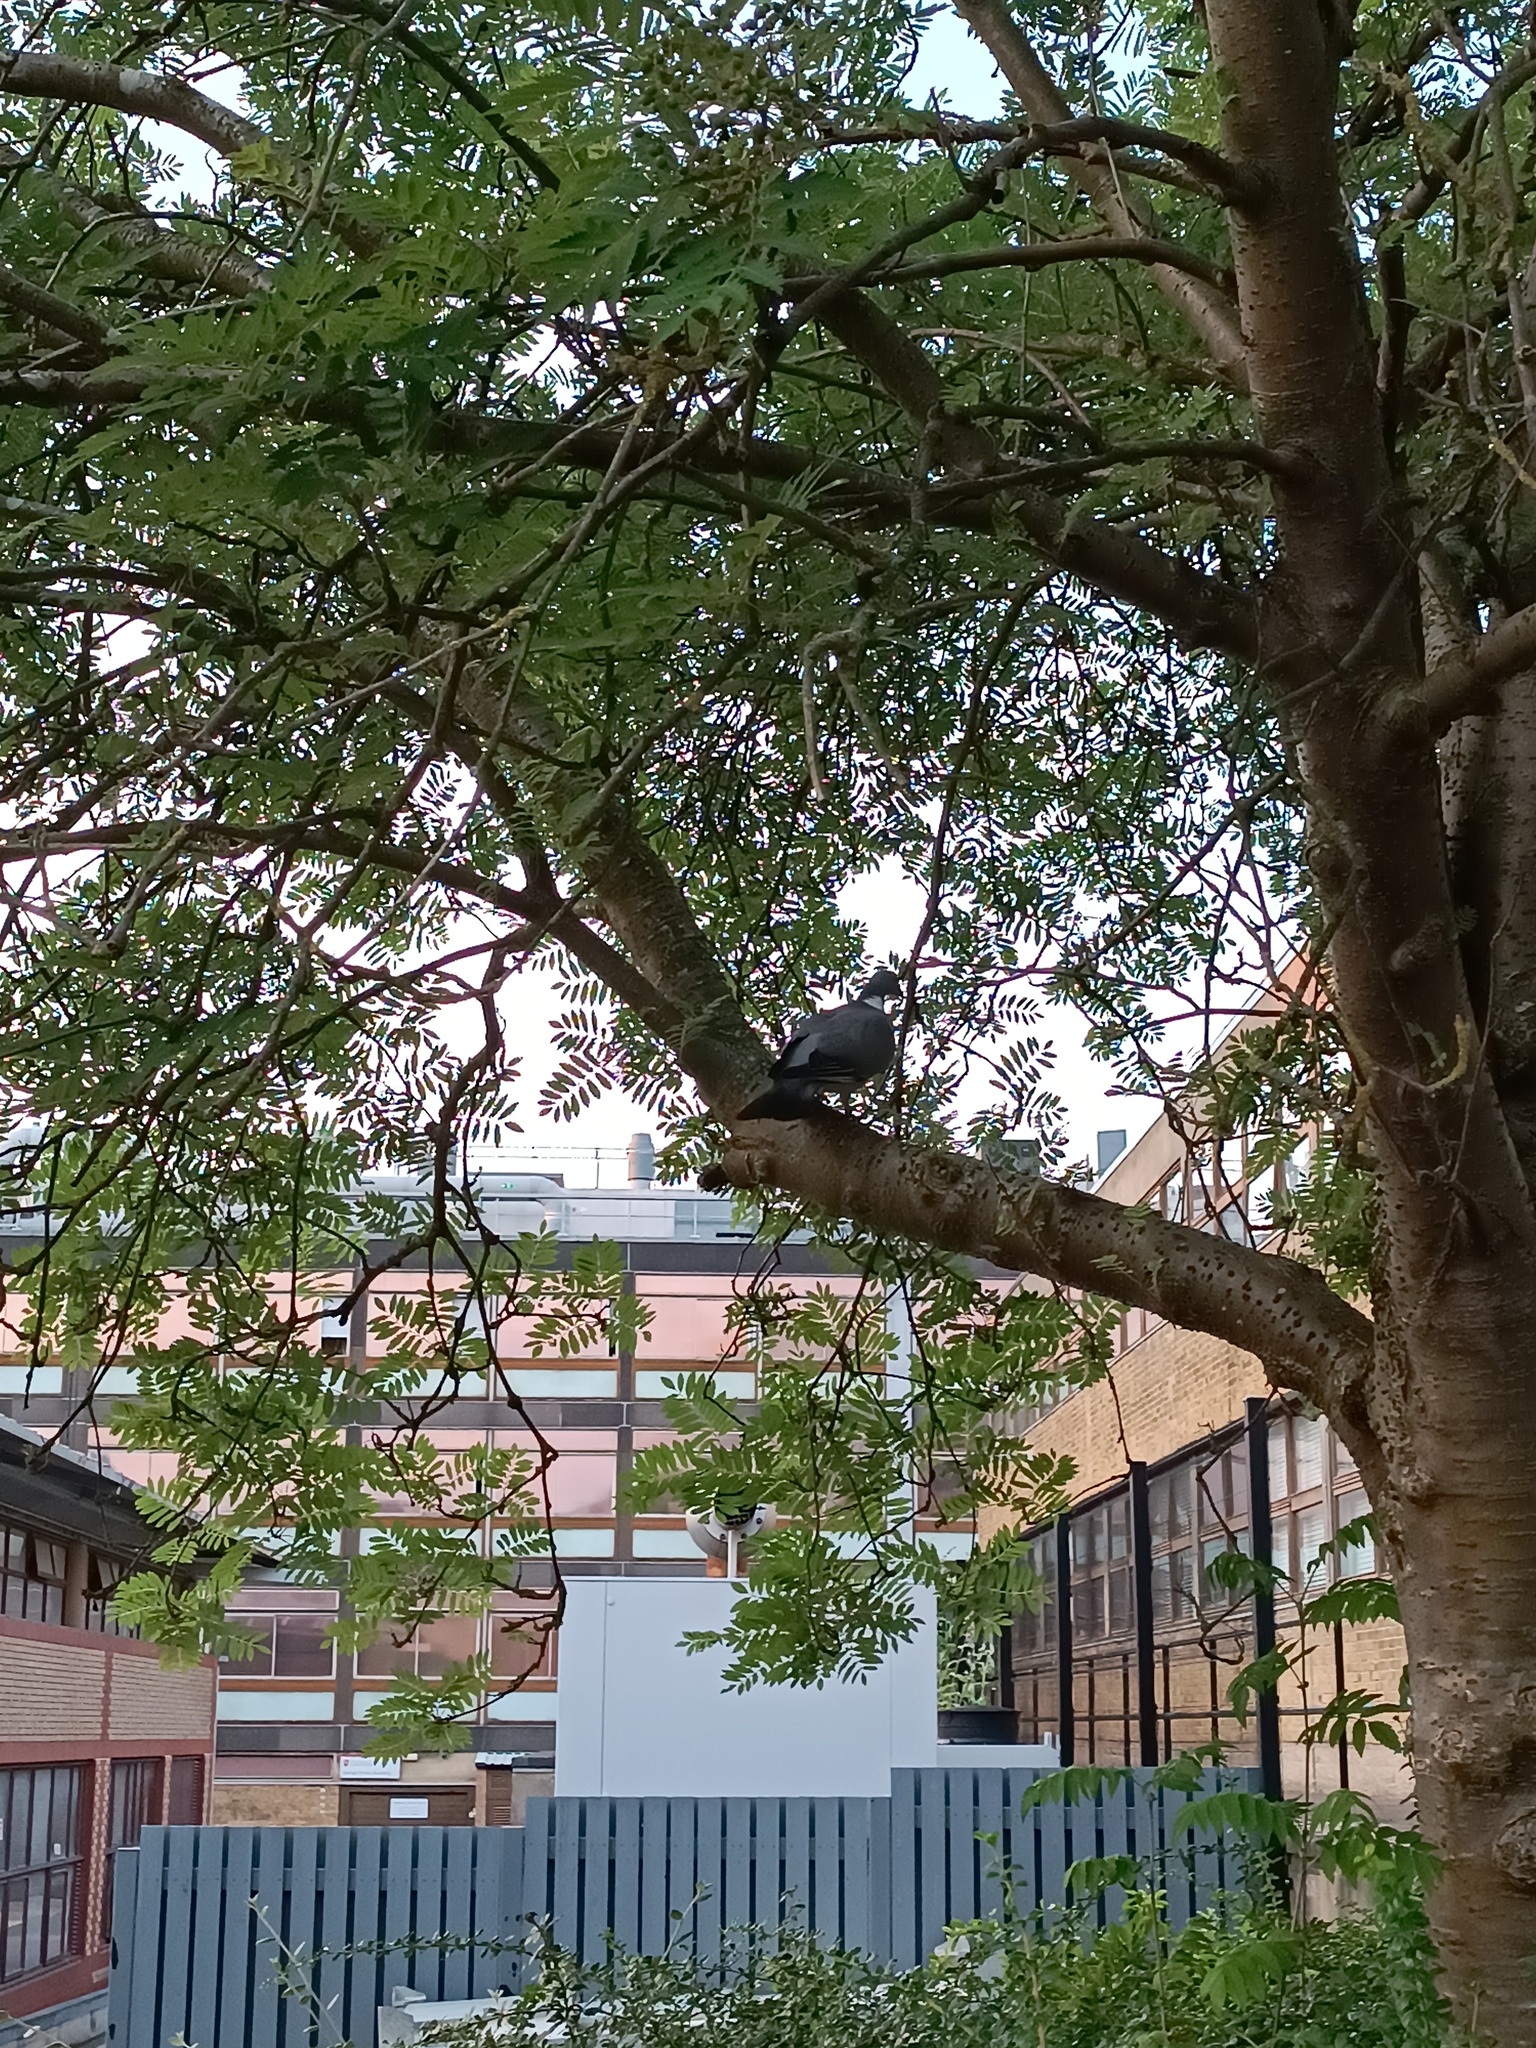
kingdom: Animalia
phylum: Chordata
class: Aves
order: Columbiformes
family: Columbidae
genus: Columba
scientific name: Columba palumbus
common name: Common wood pigeon
